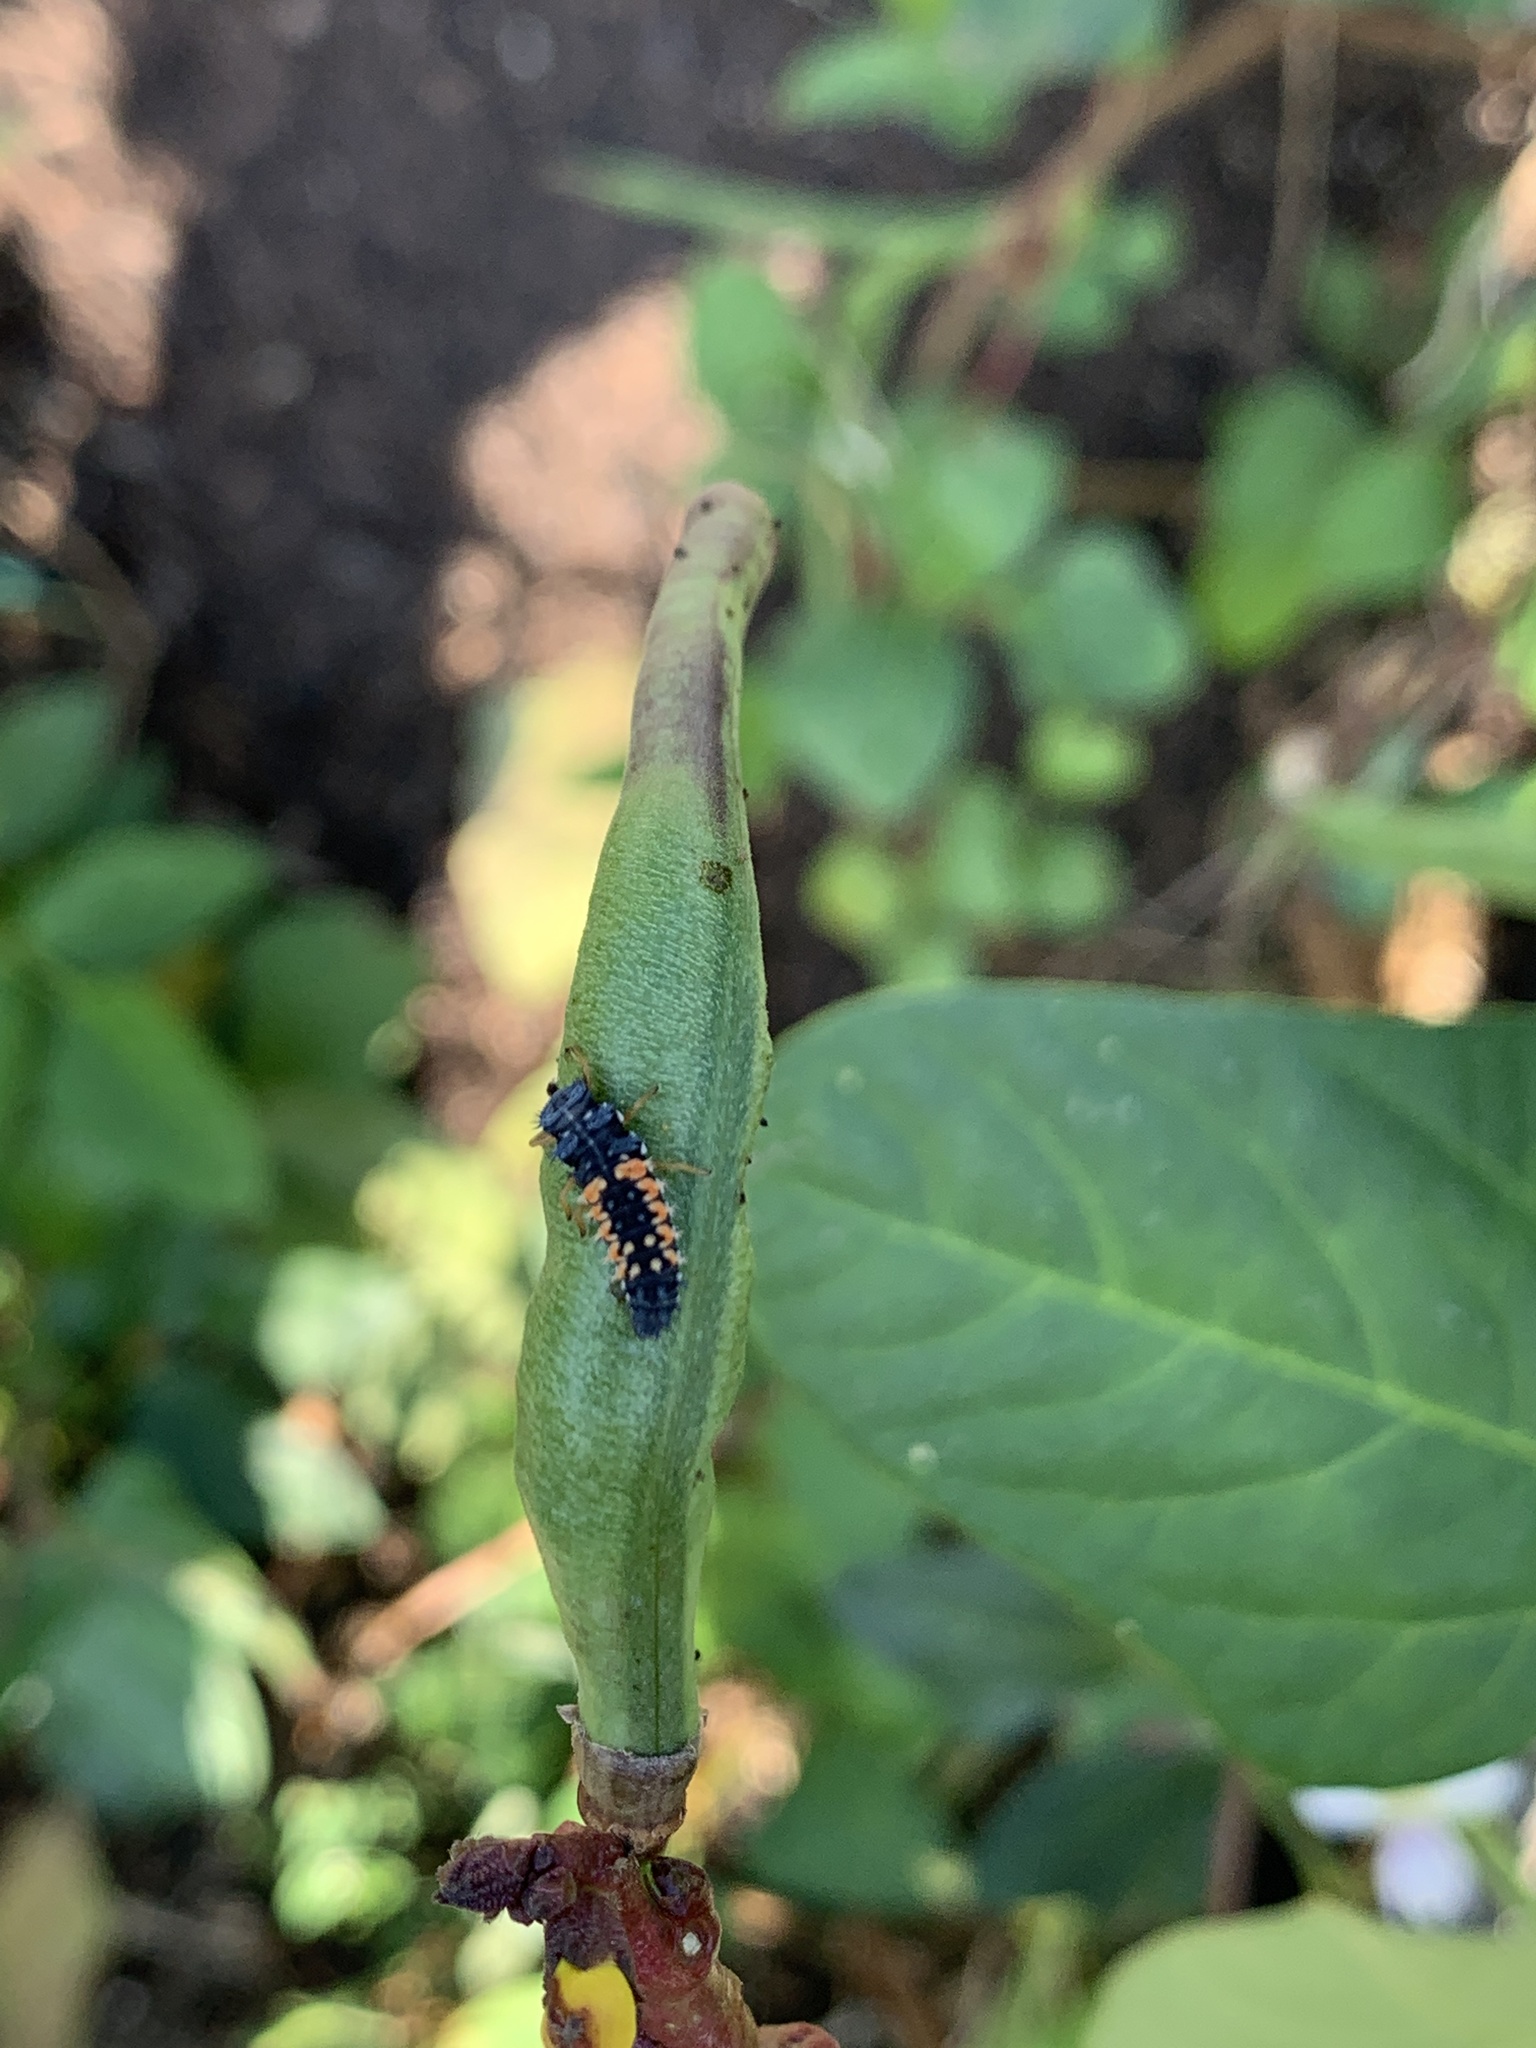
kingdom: Animalia
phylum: Arthropoda
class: Insecta
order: Coleoptera
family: Coccinellidae
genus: Harmonia
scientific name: Harmonia axyridis
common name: Harlequin ladybird
